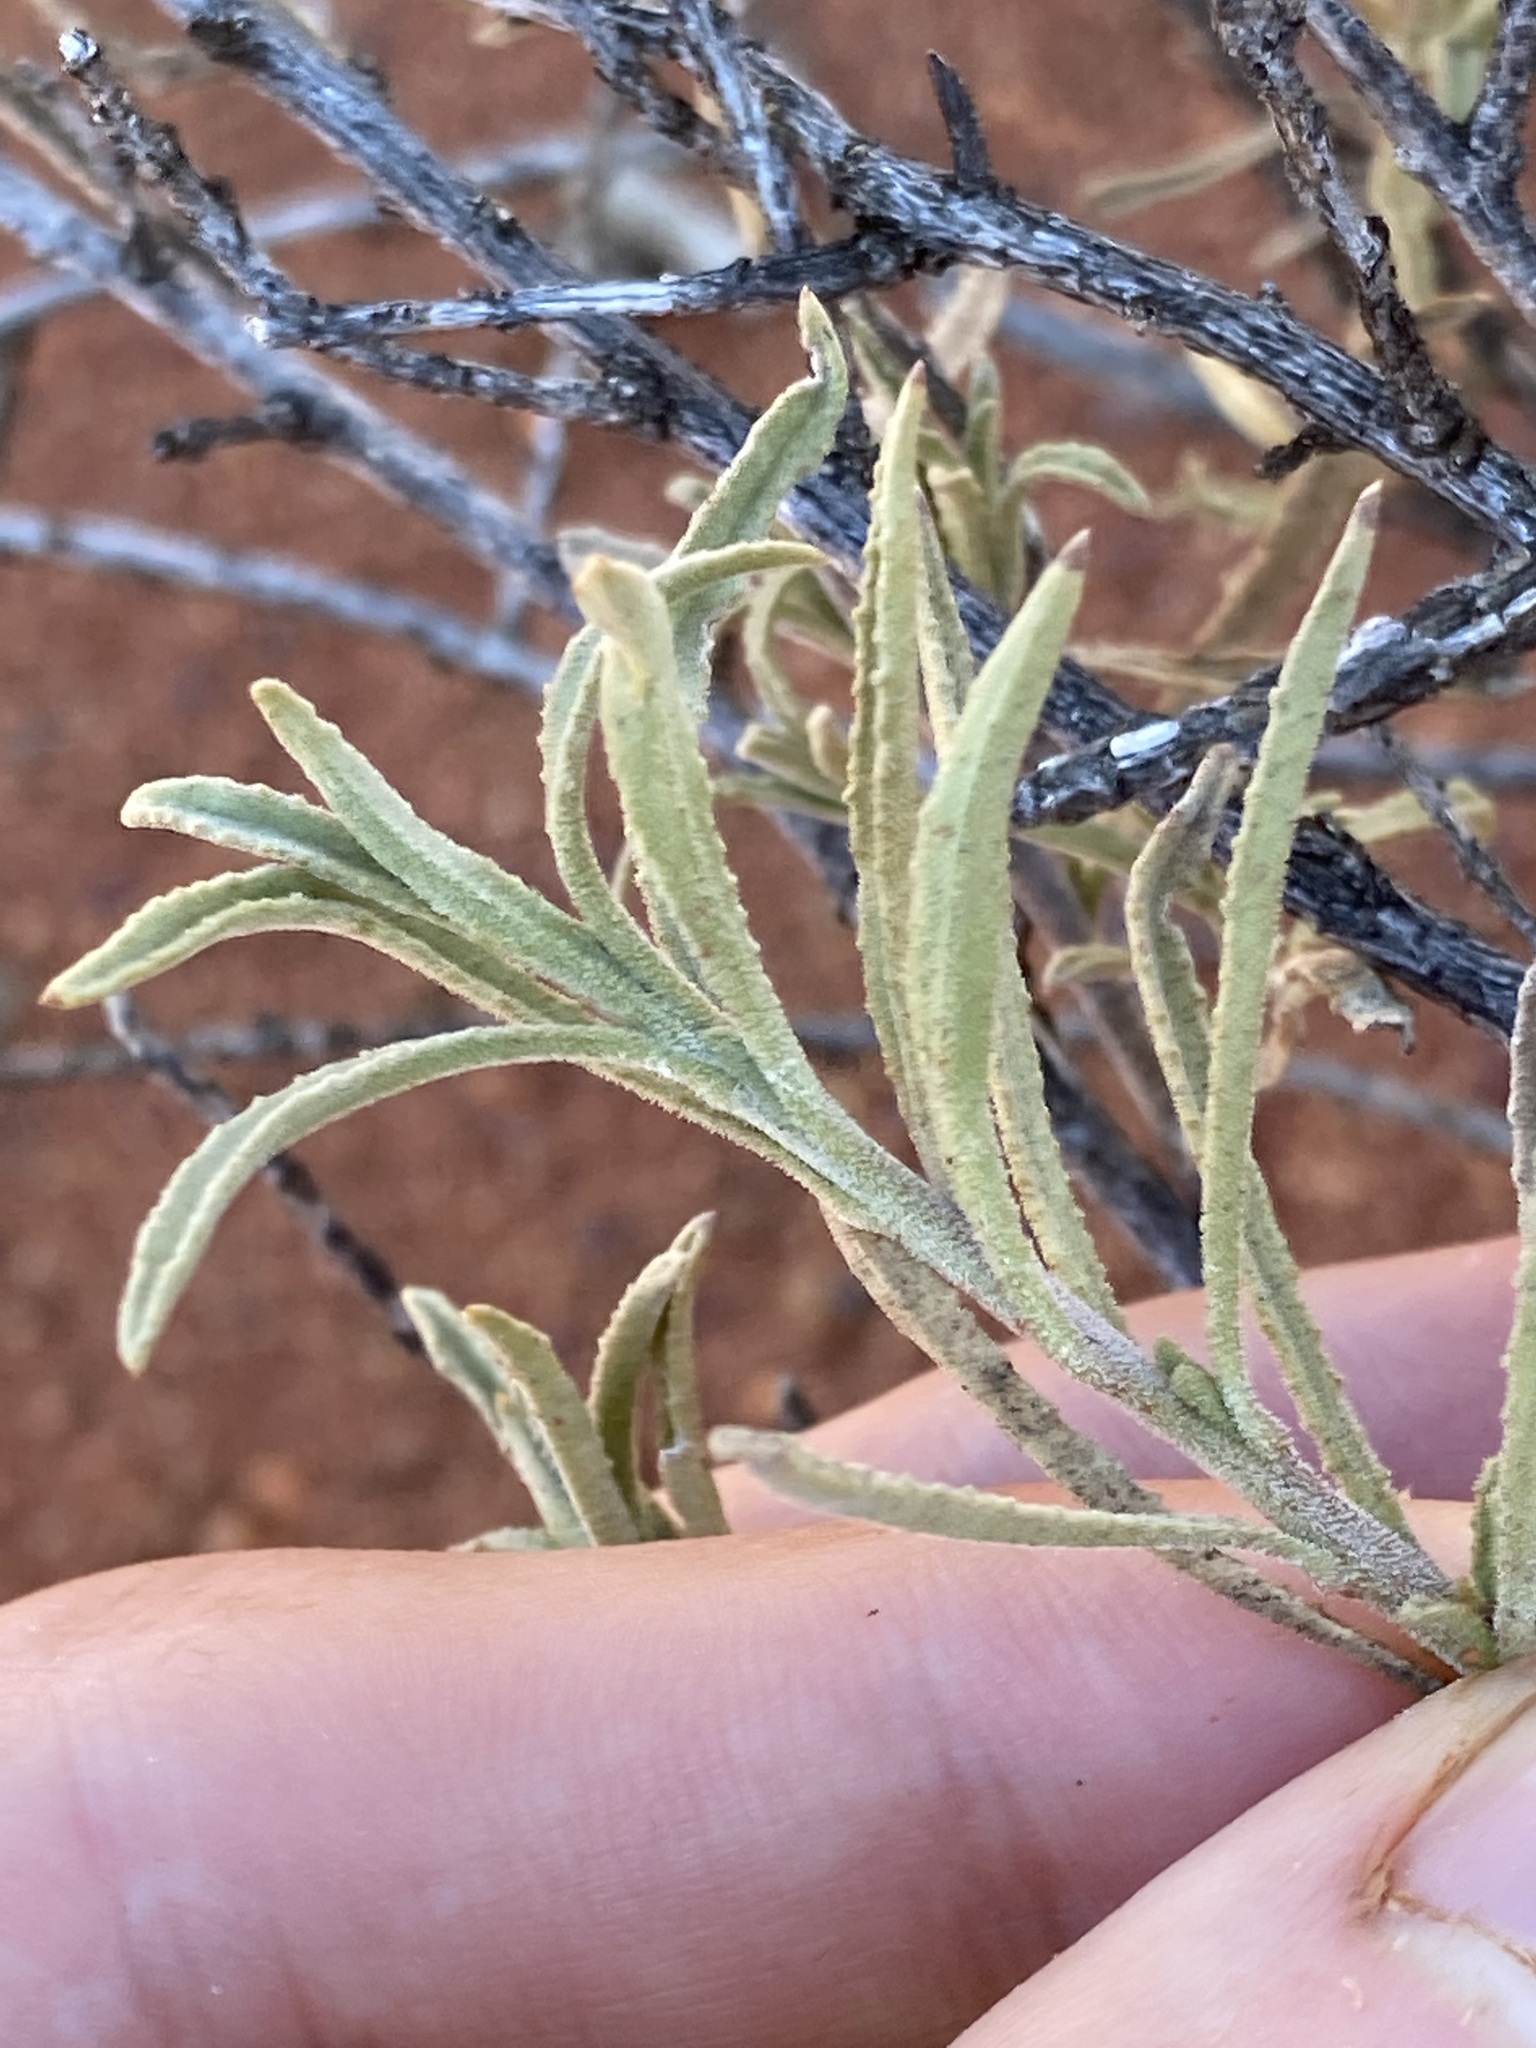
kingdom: Plantae
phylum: Tracheophyta
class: Magnoliopsida
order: Lamiales
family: Scrophulariaceae
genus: Eremophila
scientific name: Eremophila gilesii
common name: Desert fuchsia
